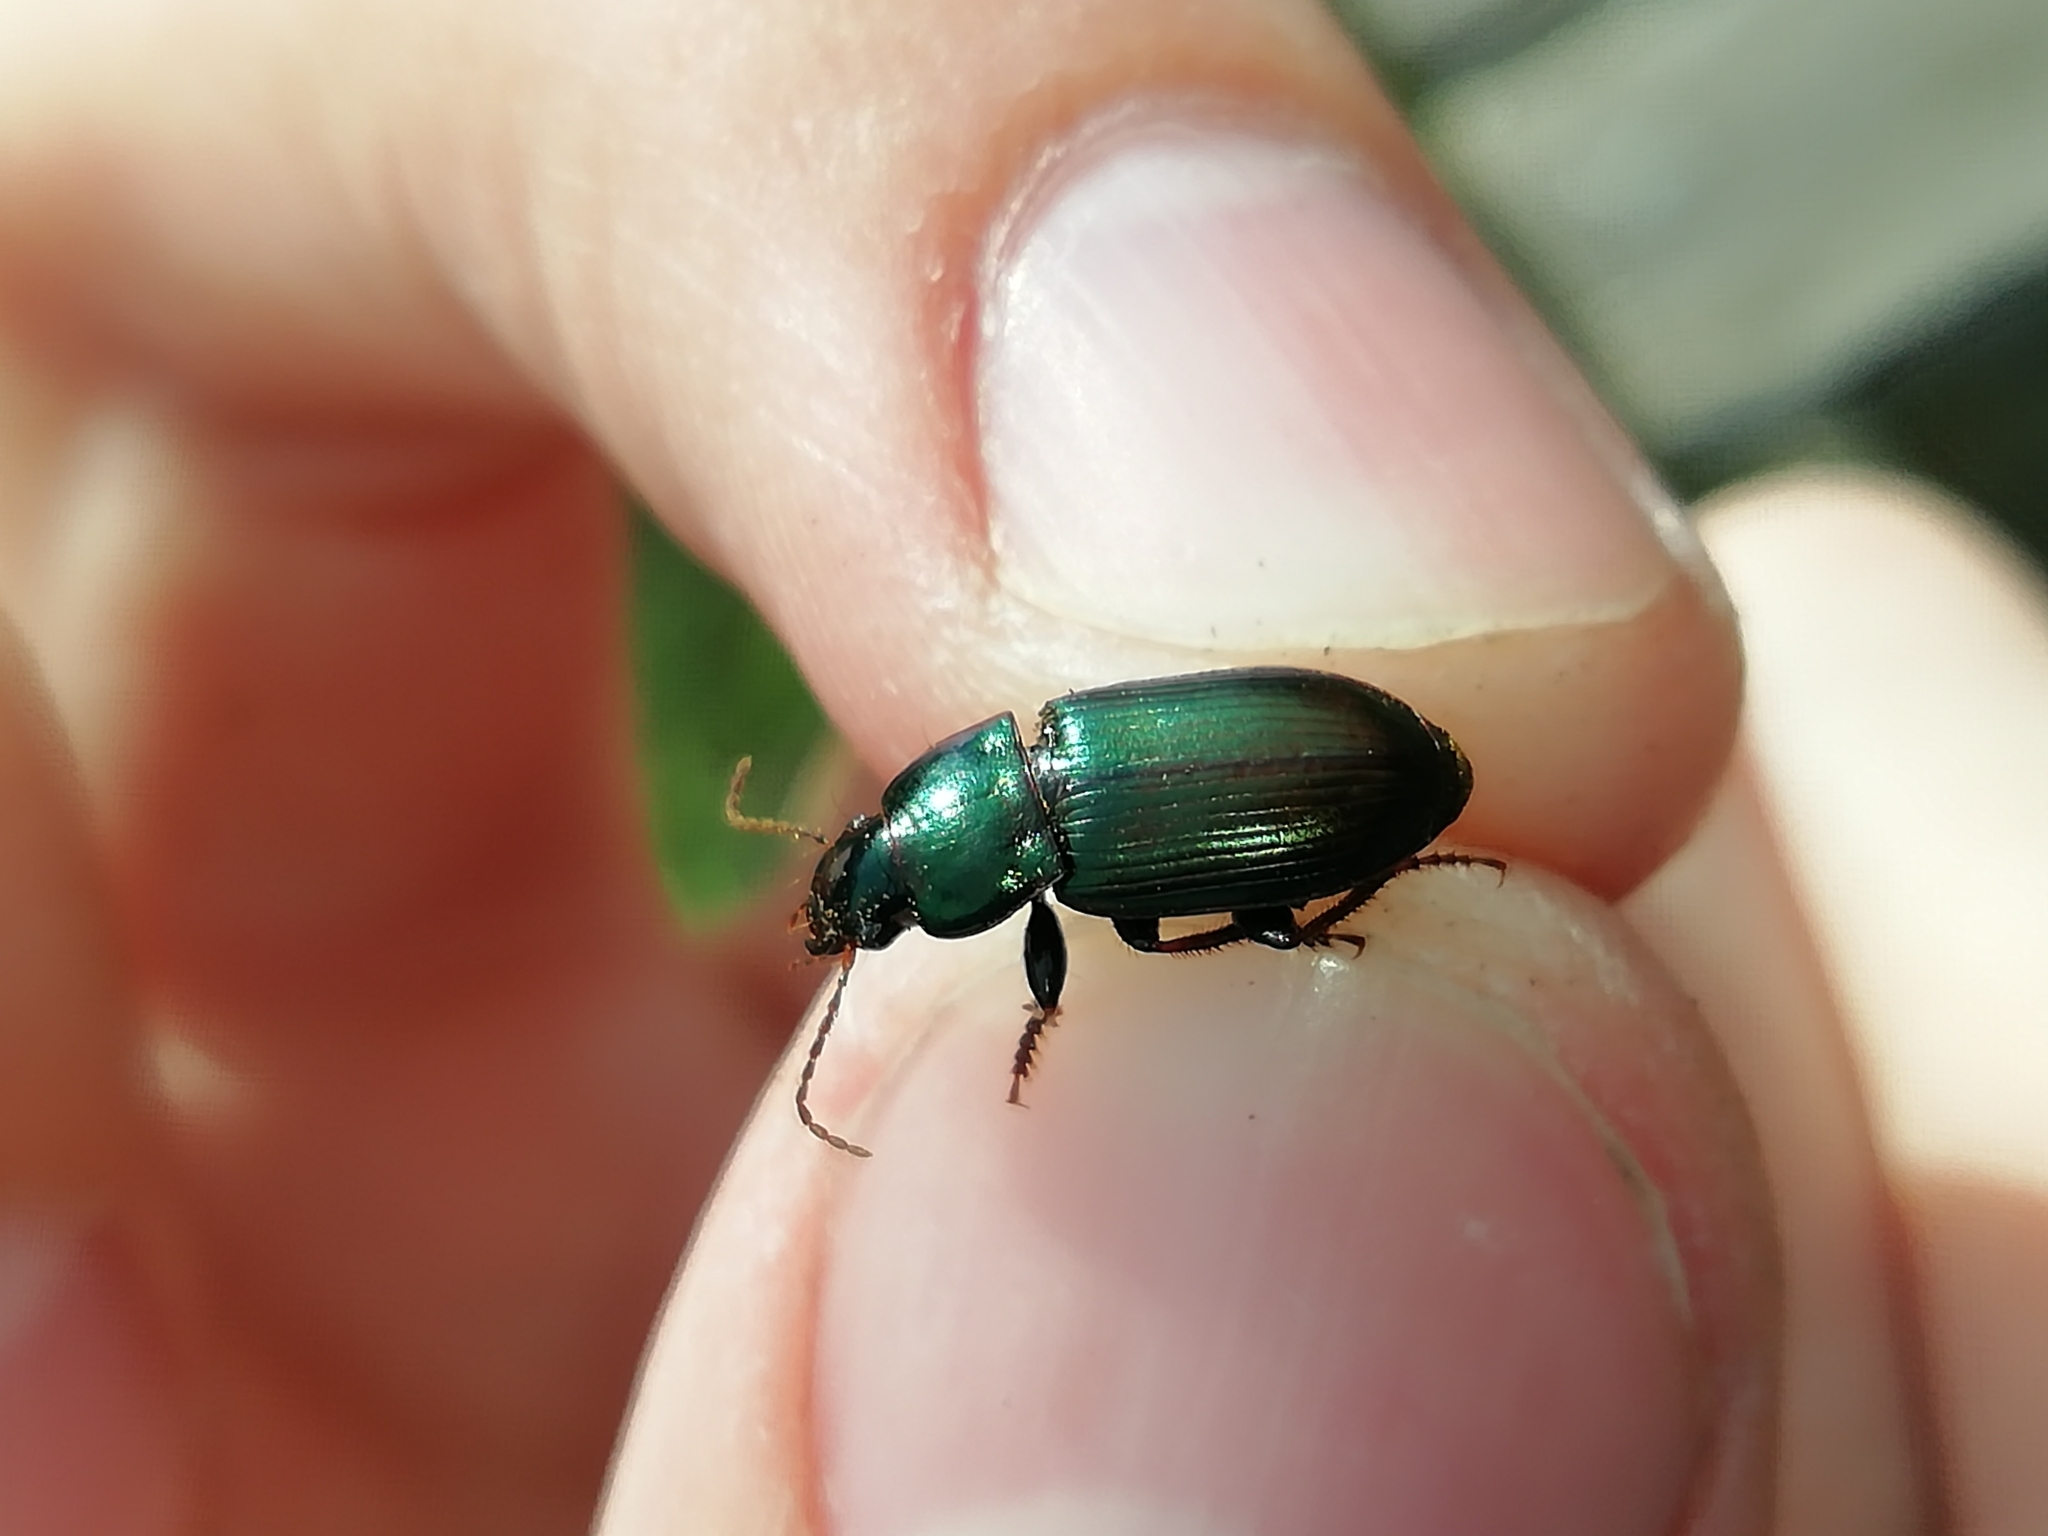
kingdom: Animalia
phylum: Arthropoda
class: Insecta
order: Coleoptera
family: Carabidae
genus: Harpalus
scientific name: Harpalus distinguendus
